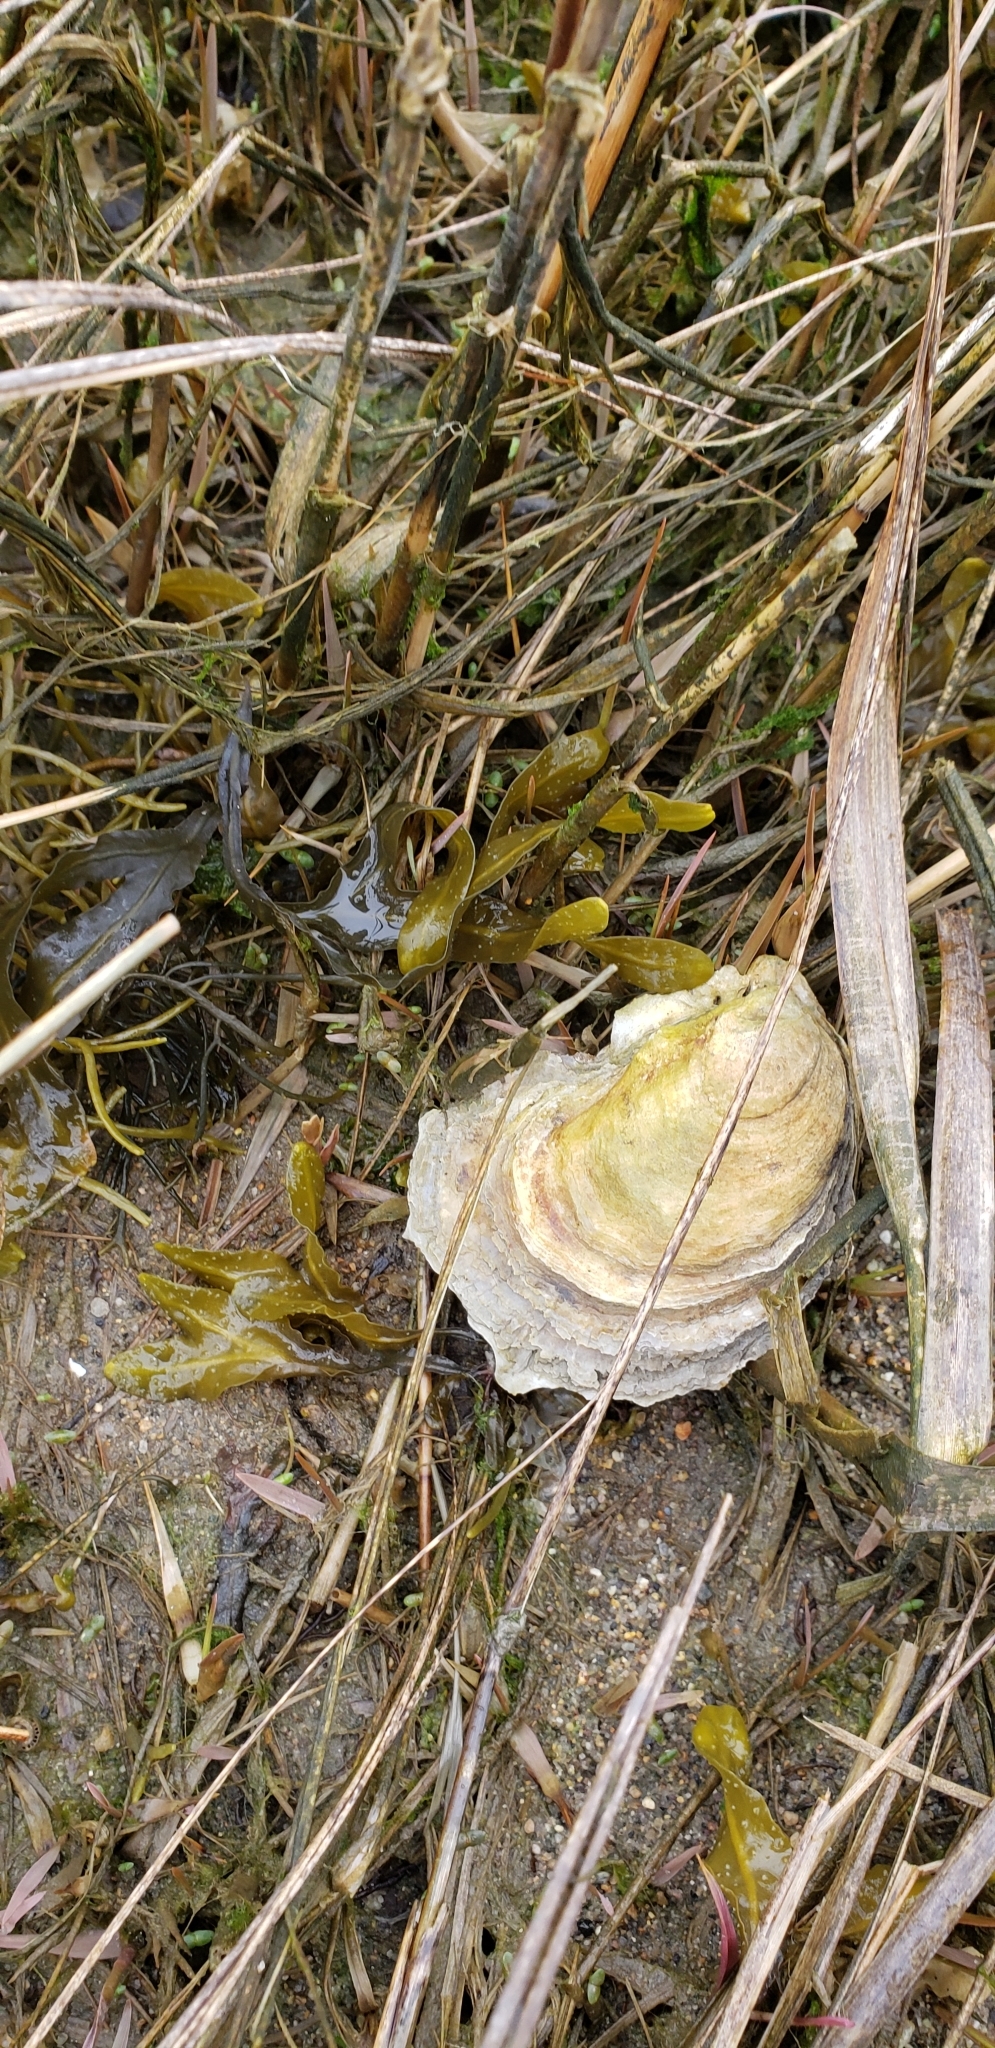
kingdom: Animalia
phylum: Mollusca
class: Bivalvia
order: Ostreida
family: Ostreidae
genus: Crassostrea
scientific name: Crassostrea virginica
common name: American oyster
